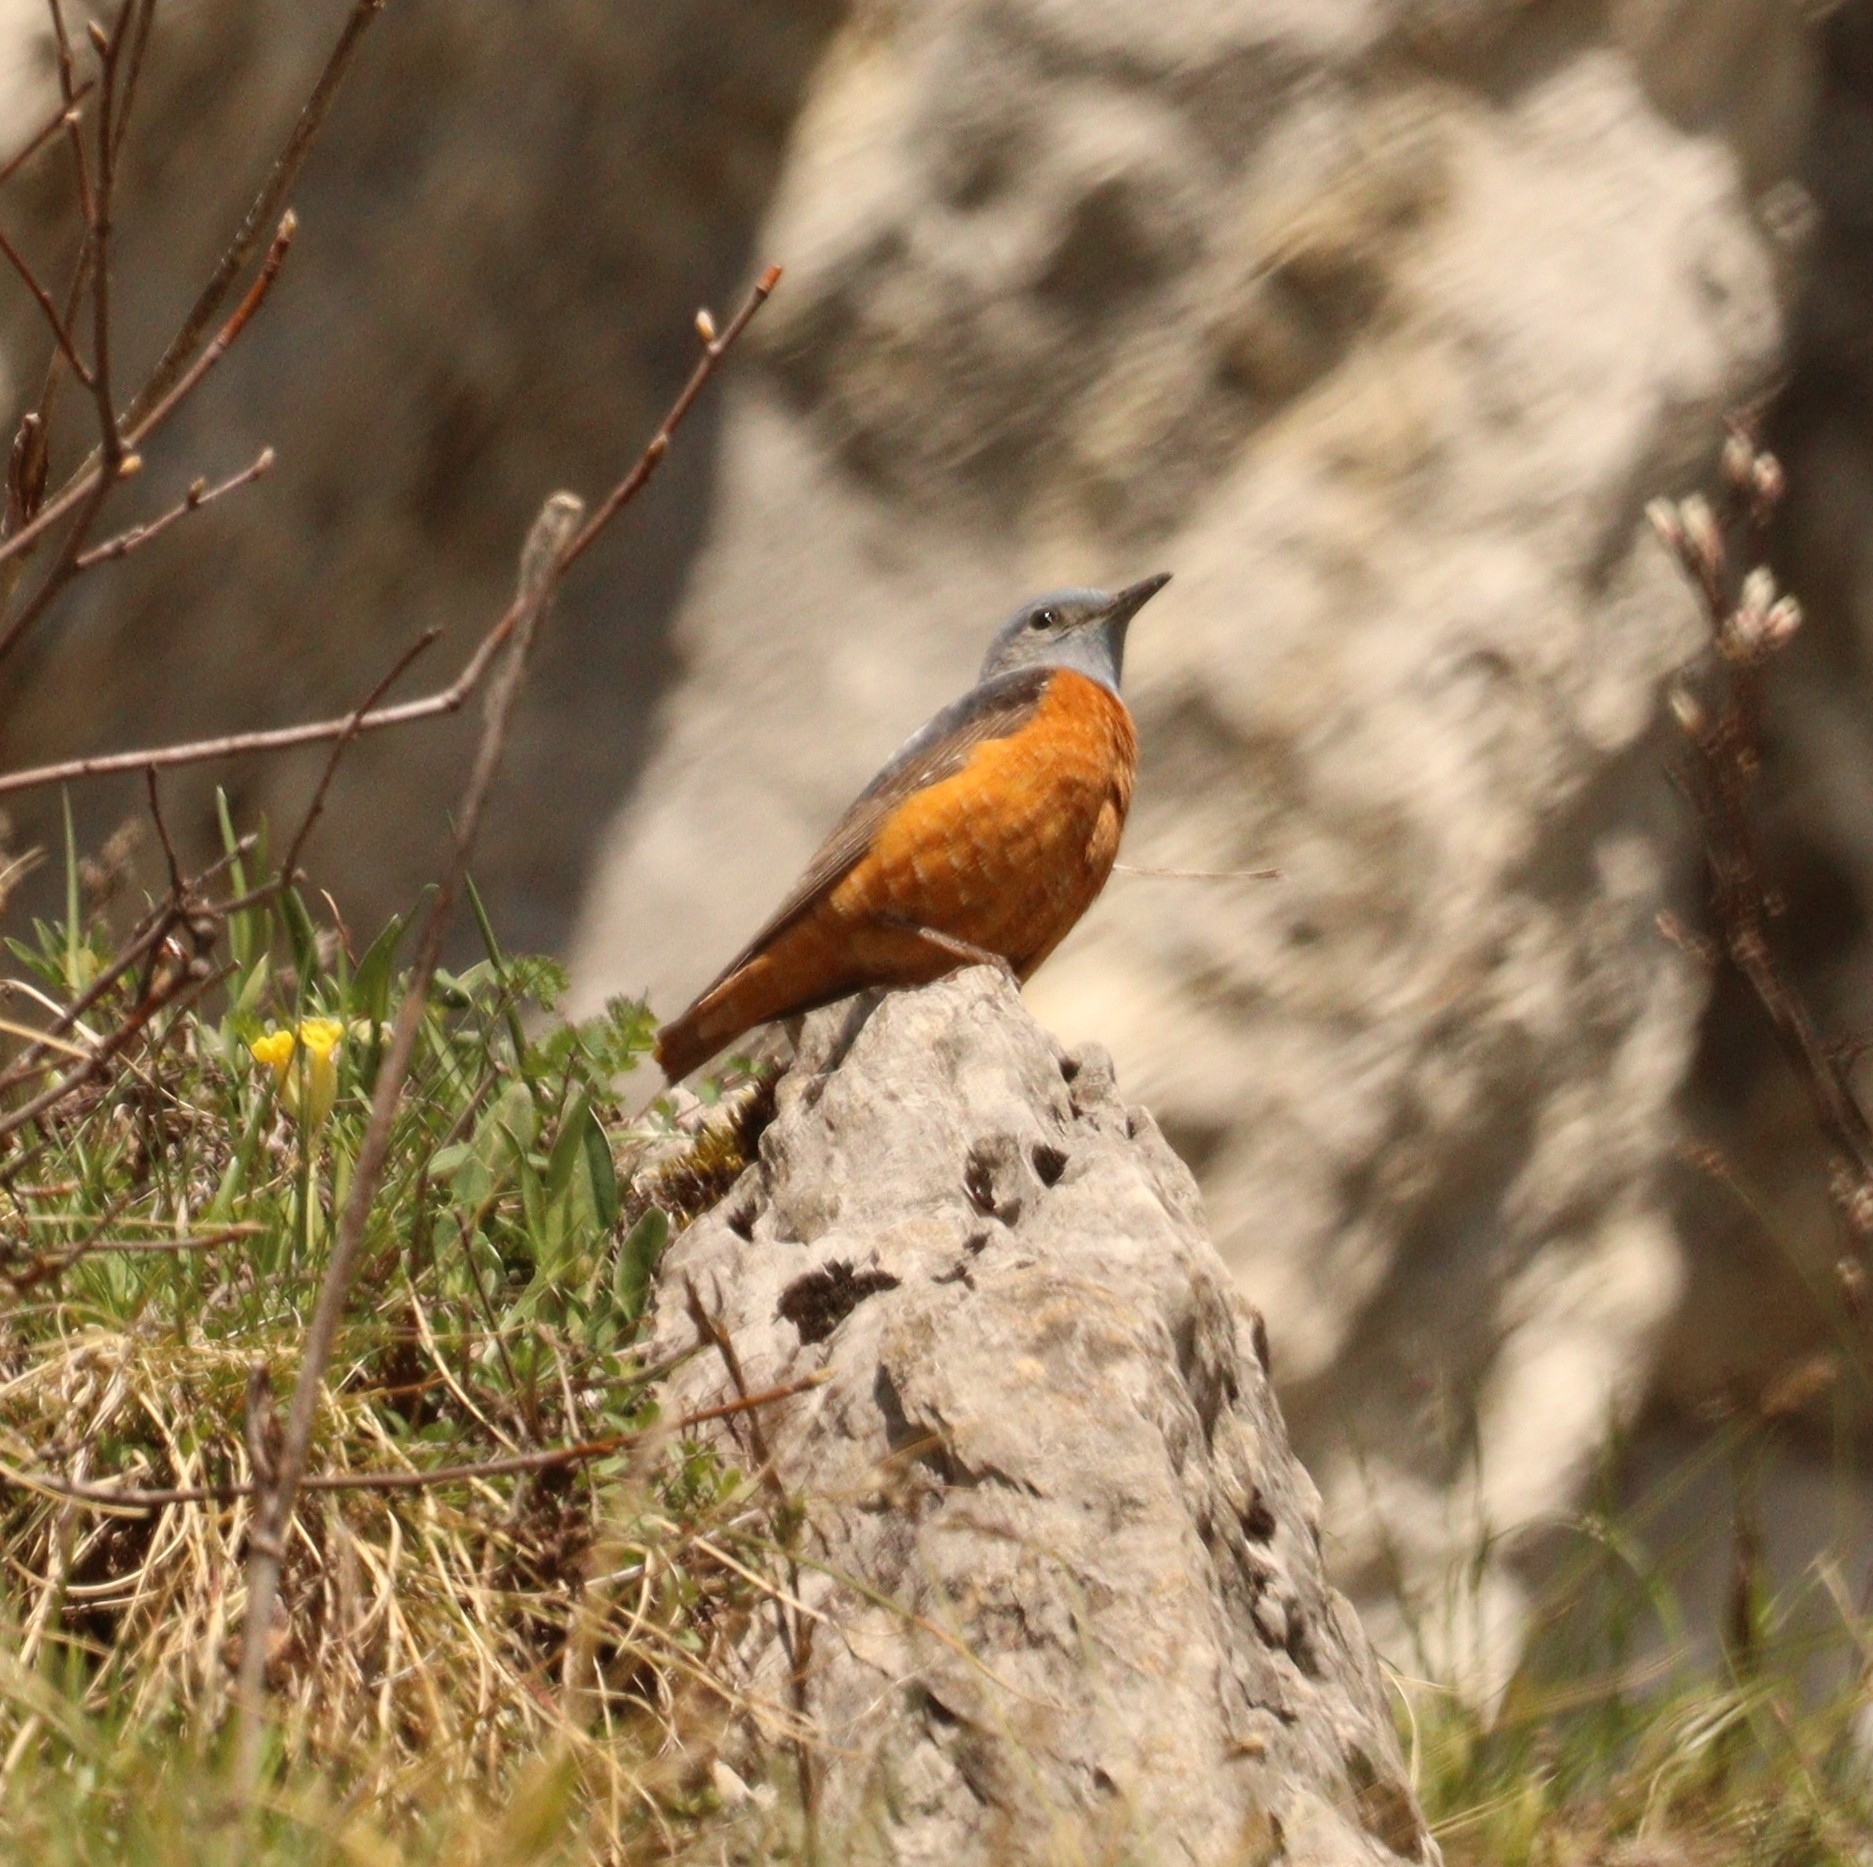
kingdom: Animalia
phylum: Chordata
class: Aves
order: Passeriformes
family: Muscicapidae
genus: Monticola
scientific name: Monticola saxatilis
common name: Rufous-tailed rock thrush
